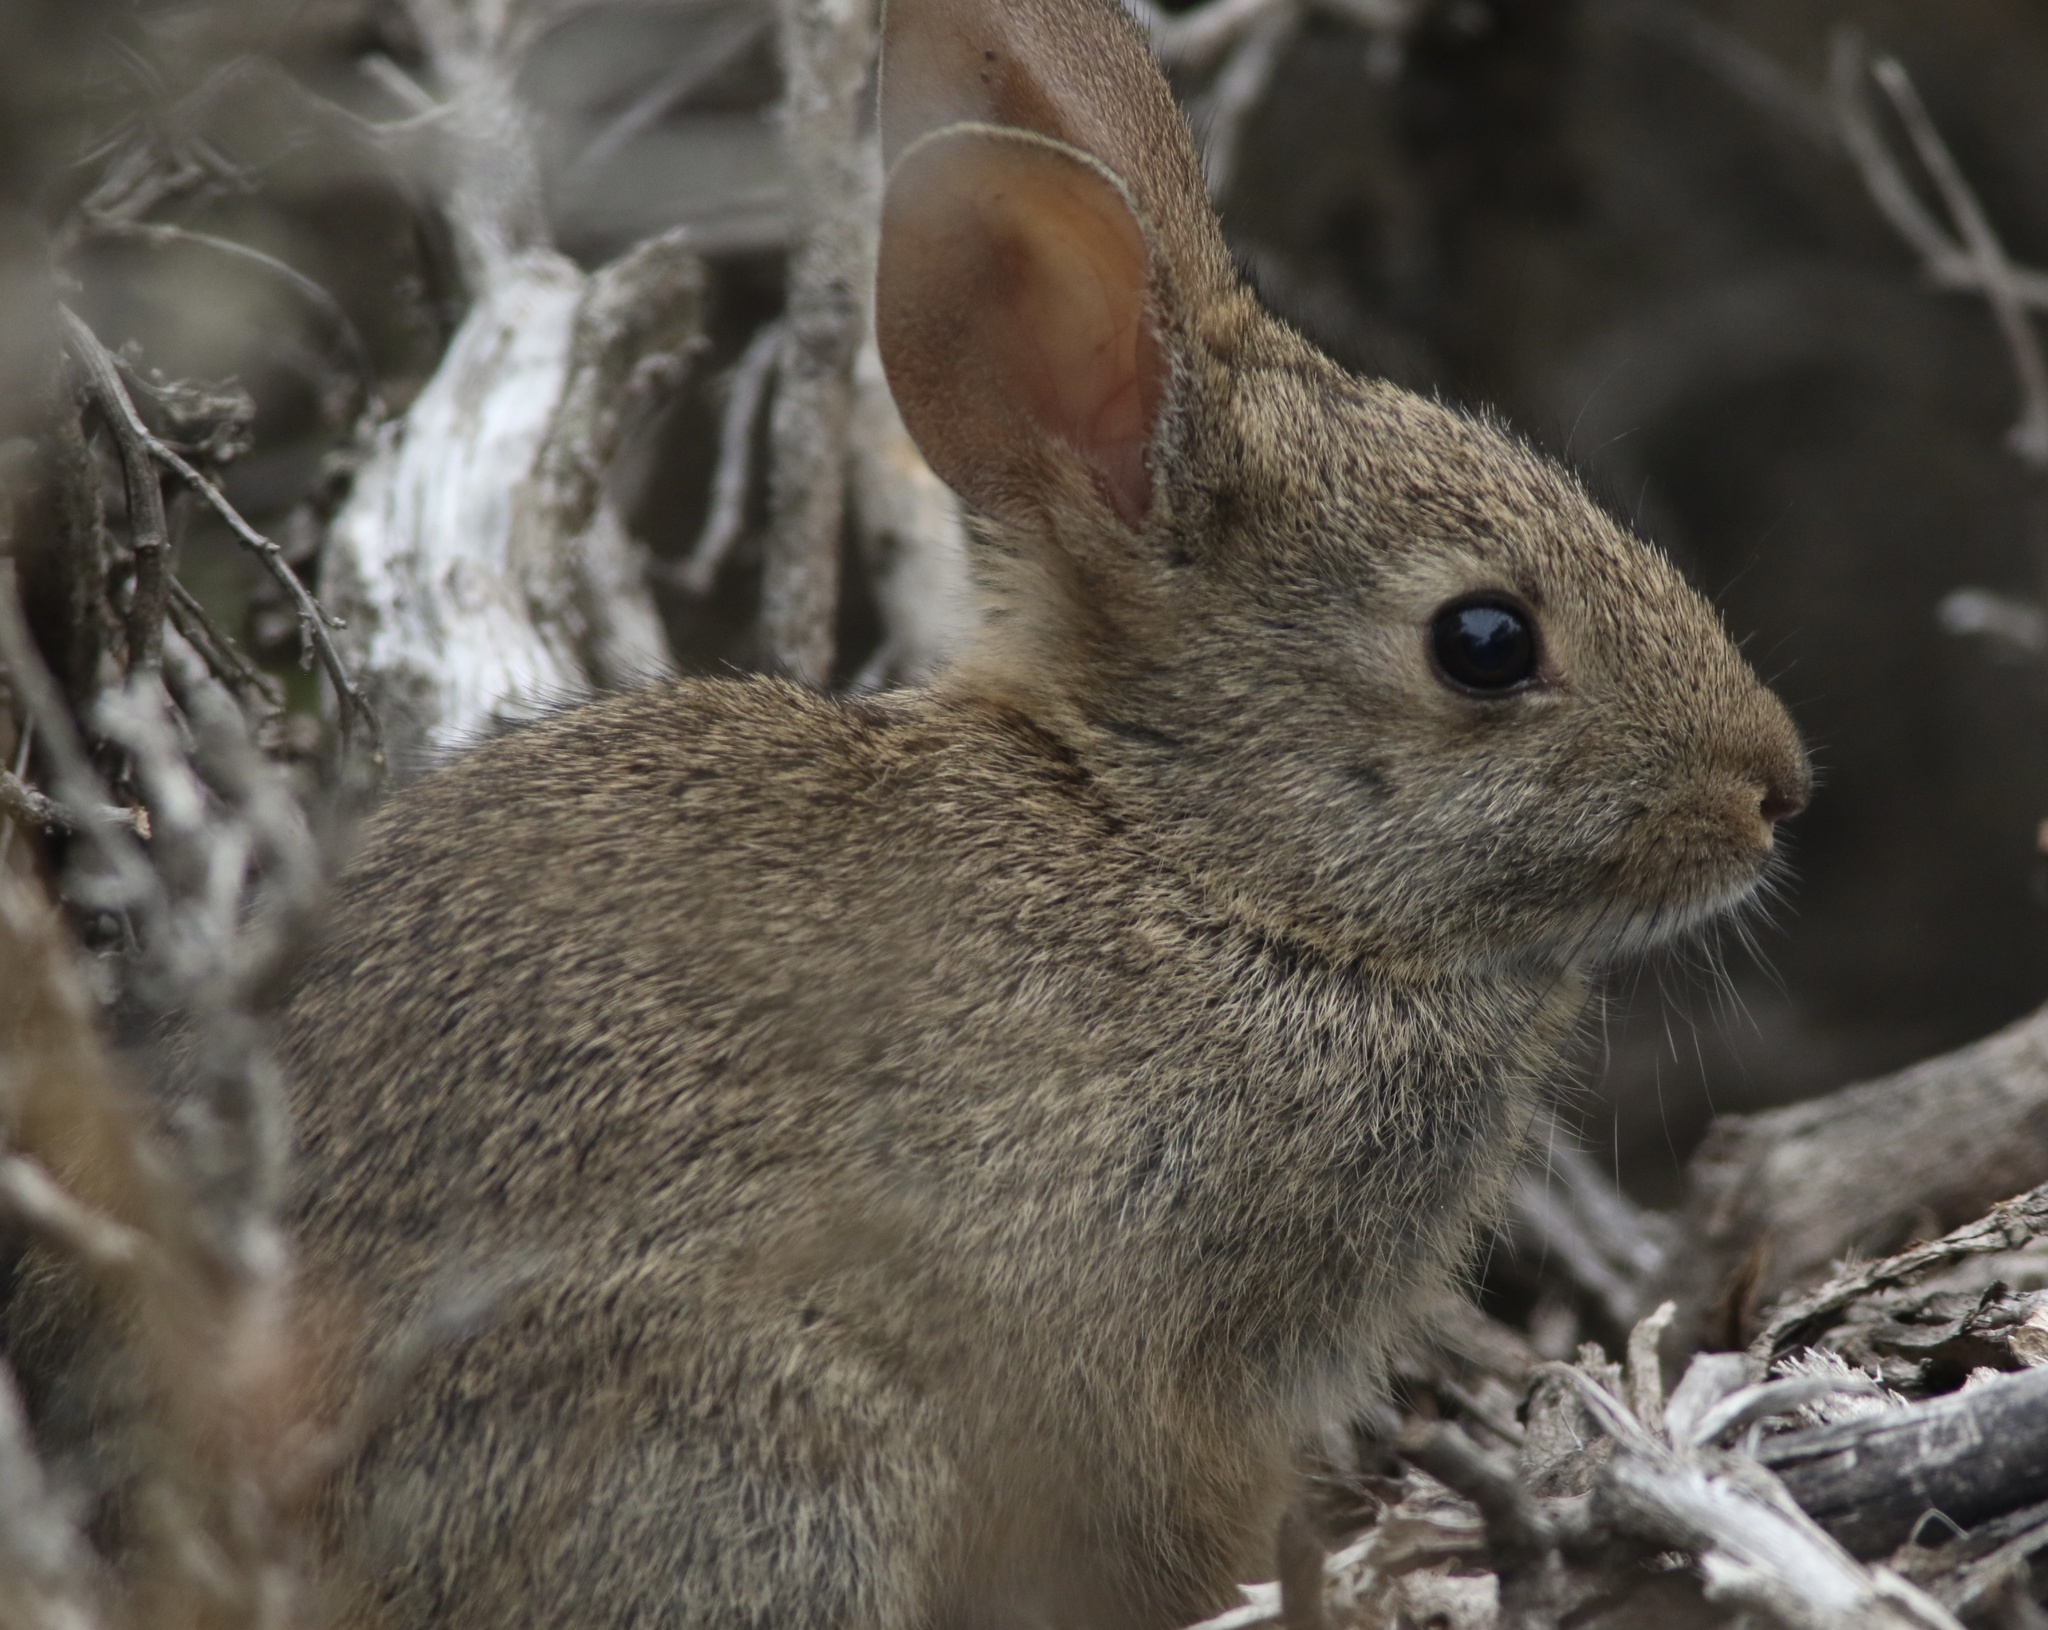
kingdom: Animalia
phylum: Chordata
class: Mammalia
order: Lagomorpha
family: Leporidae
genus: Sylvilagus
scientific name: Sylvilagus bachmani
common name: Brush rabbit
